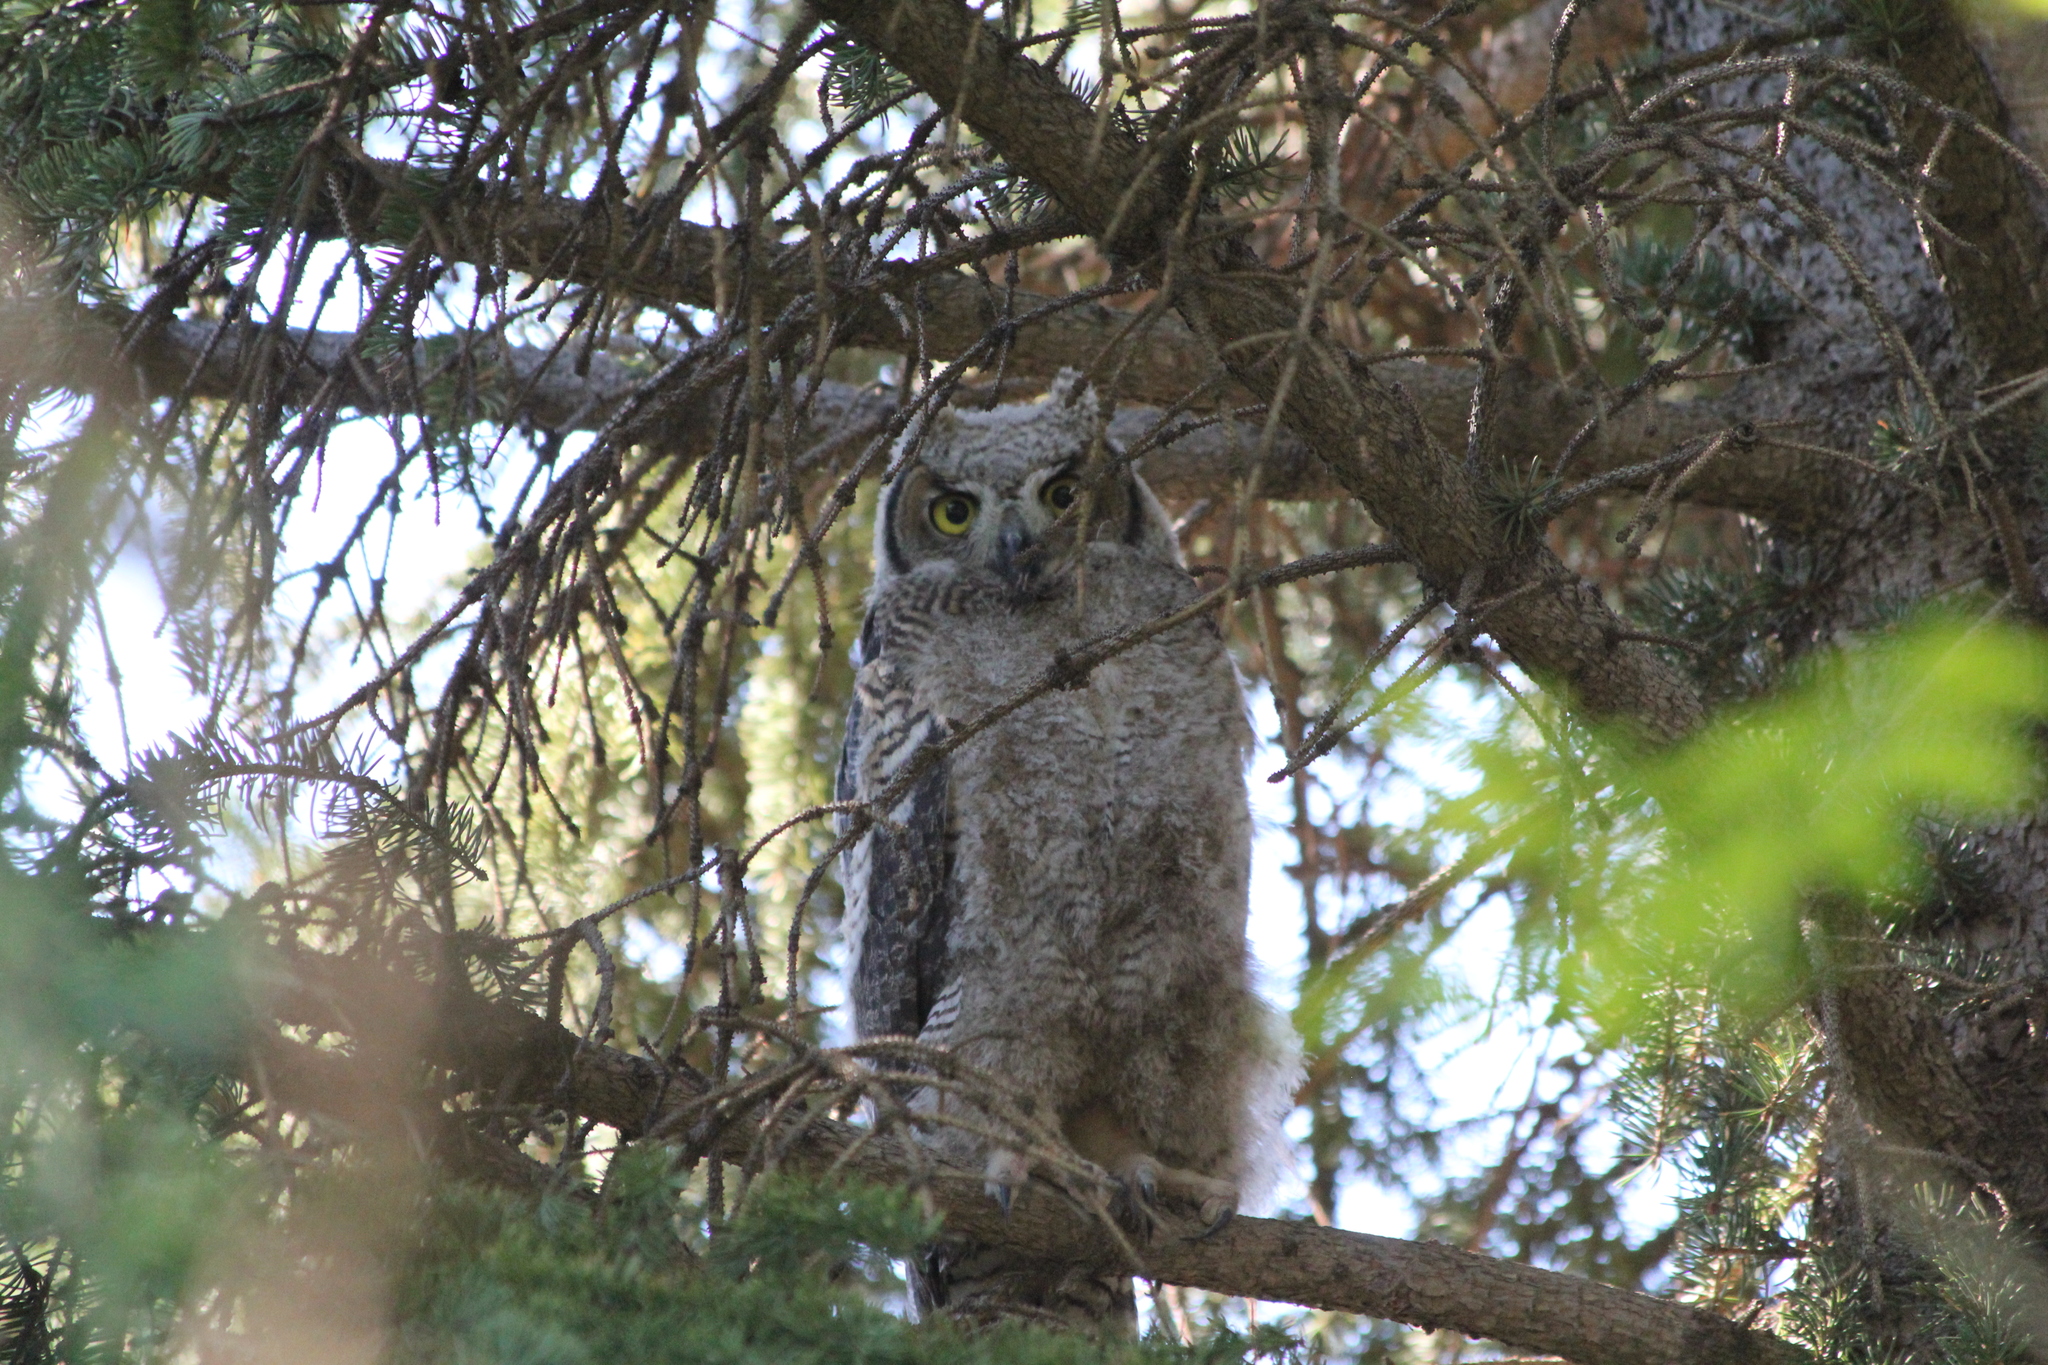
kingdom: Animalia
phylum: Chordata
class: Aves
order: Strigiformes
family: Strigidae
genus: Bubo
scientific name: Bubo virginianus
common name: Great horned owl
